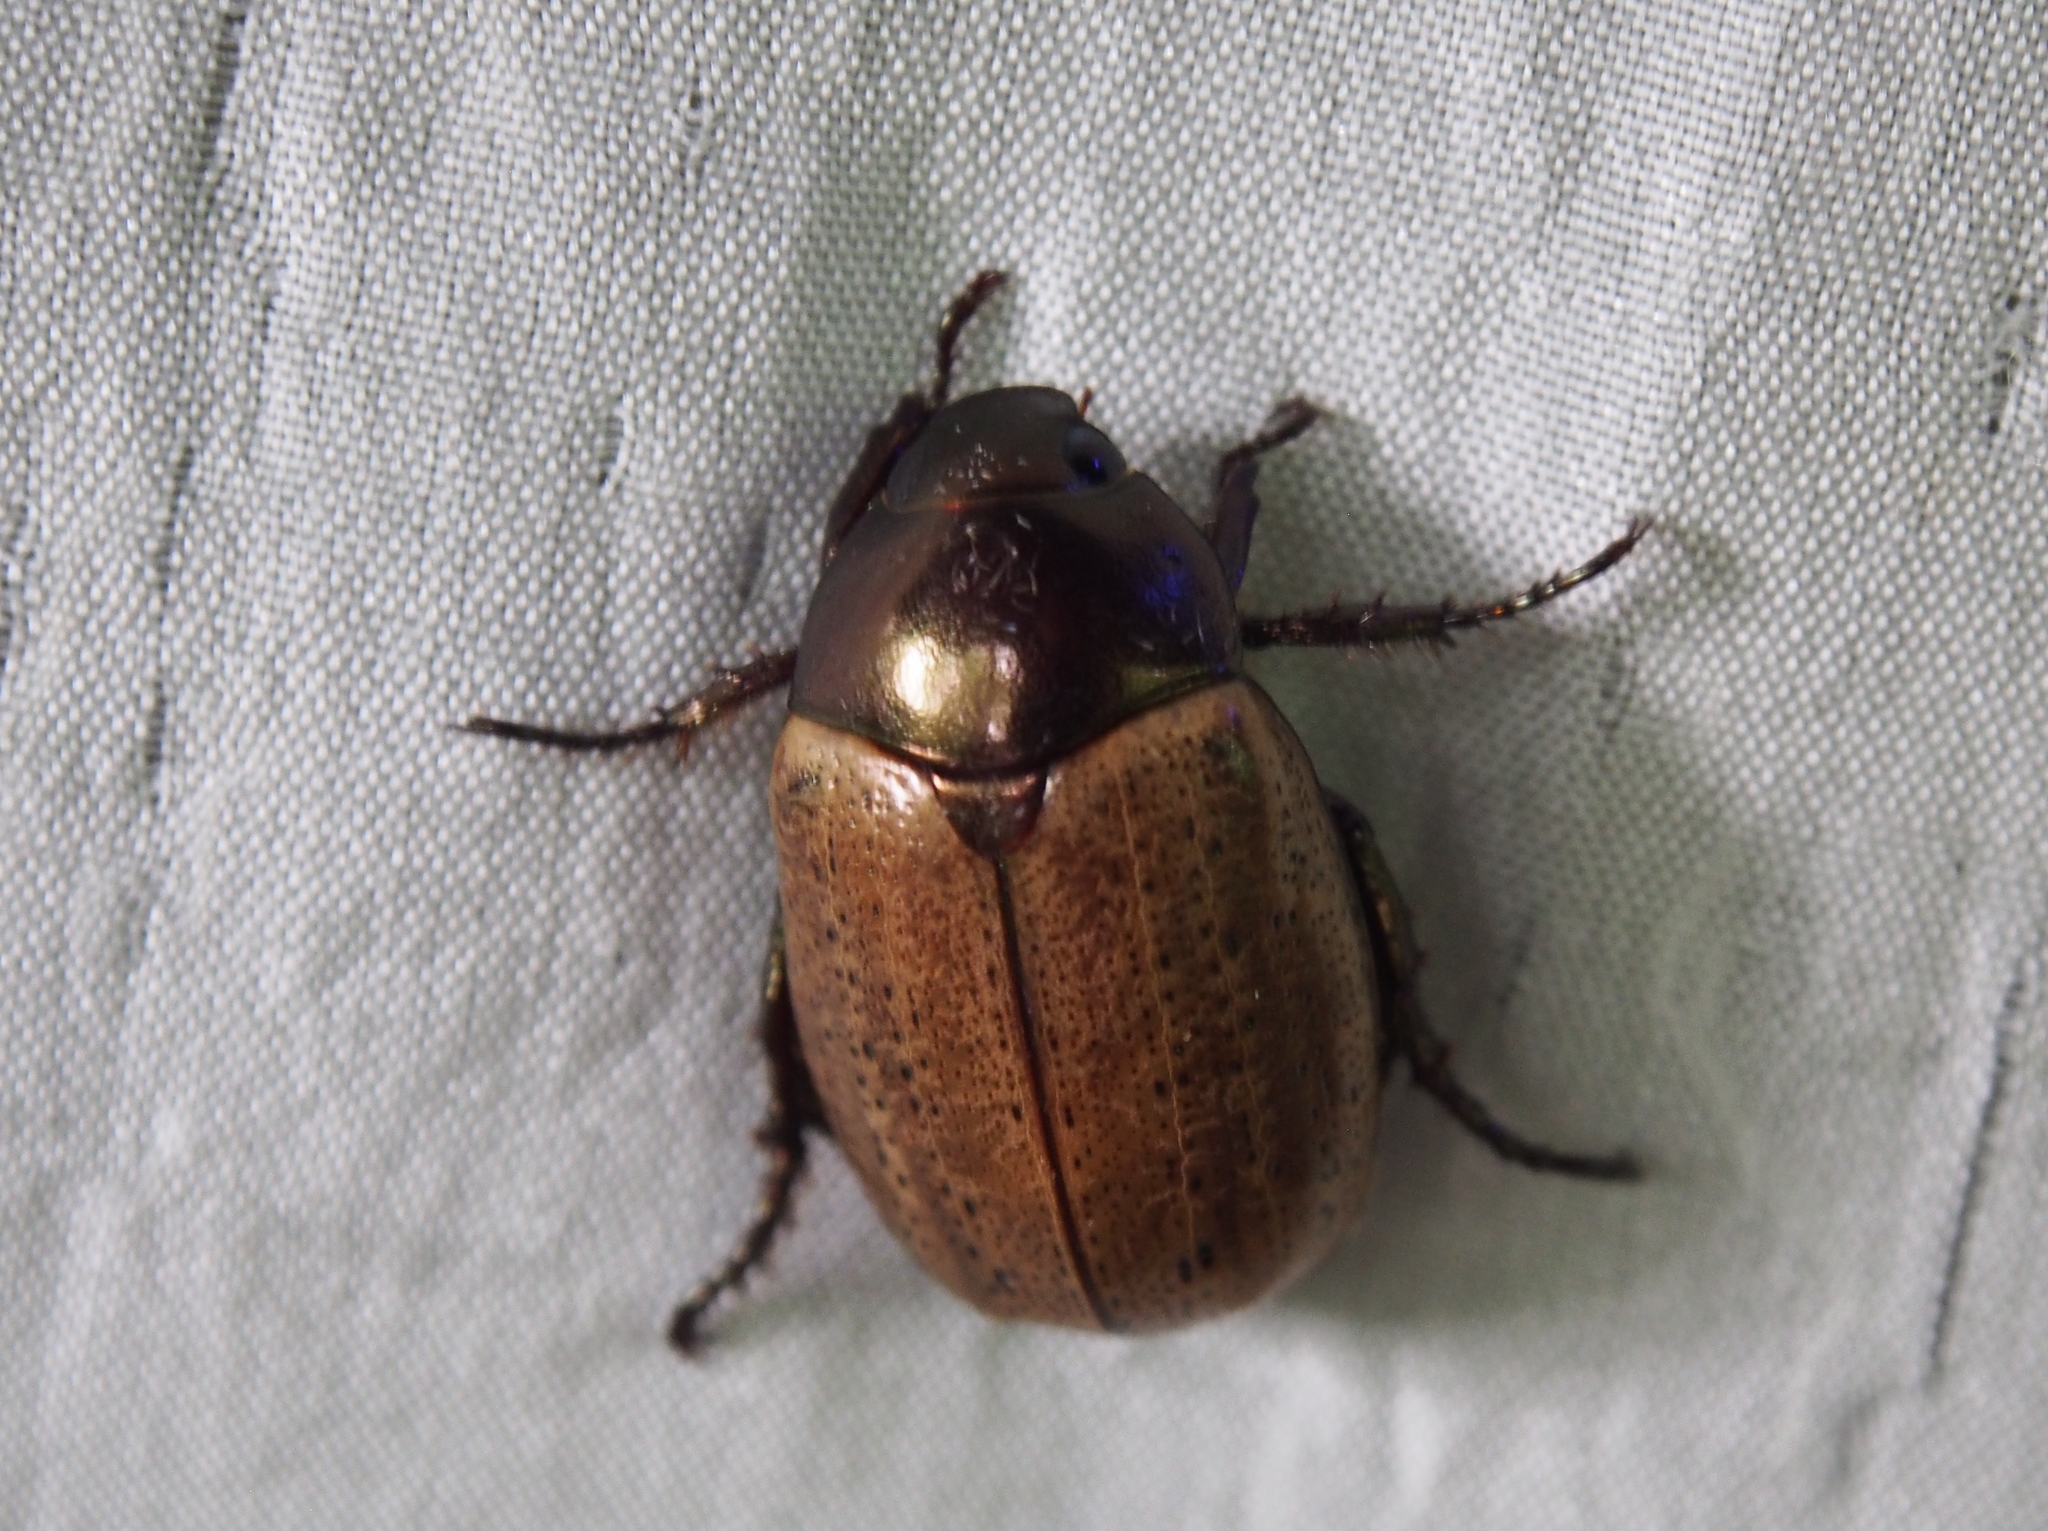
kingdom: Animalia
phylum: Arthropoda
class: Insecta
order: Coleoptera
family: Scarabaeidae
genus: Paranomala
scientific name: Paranomala cupricollis
